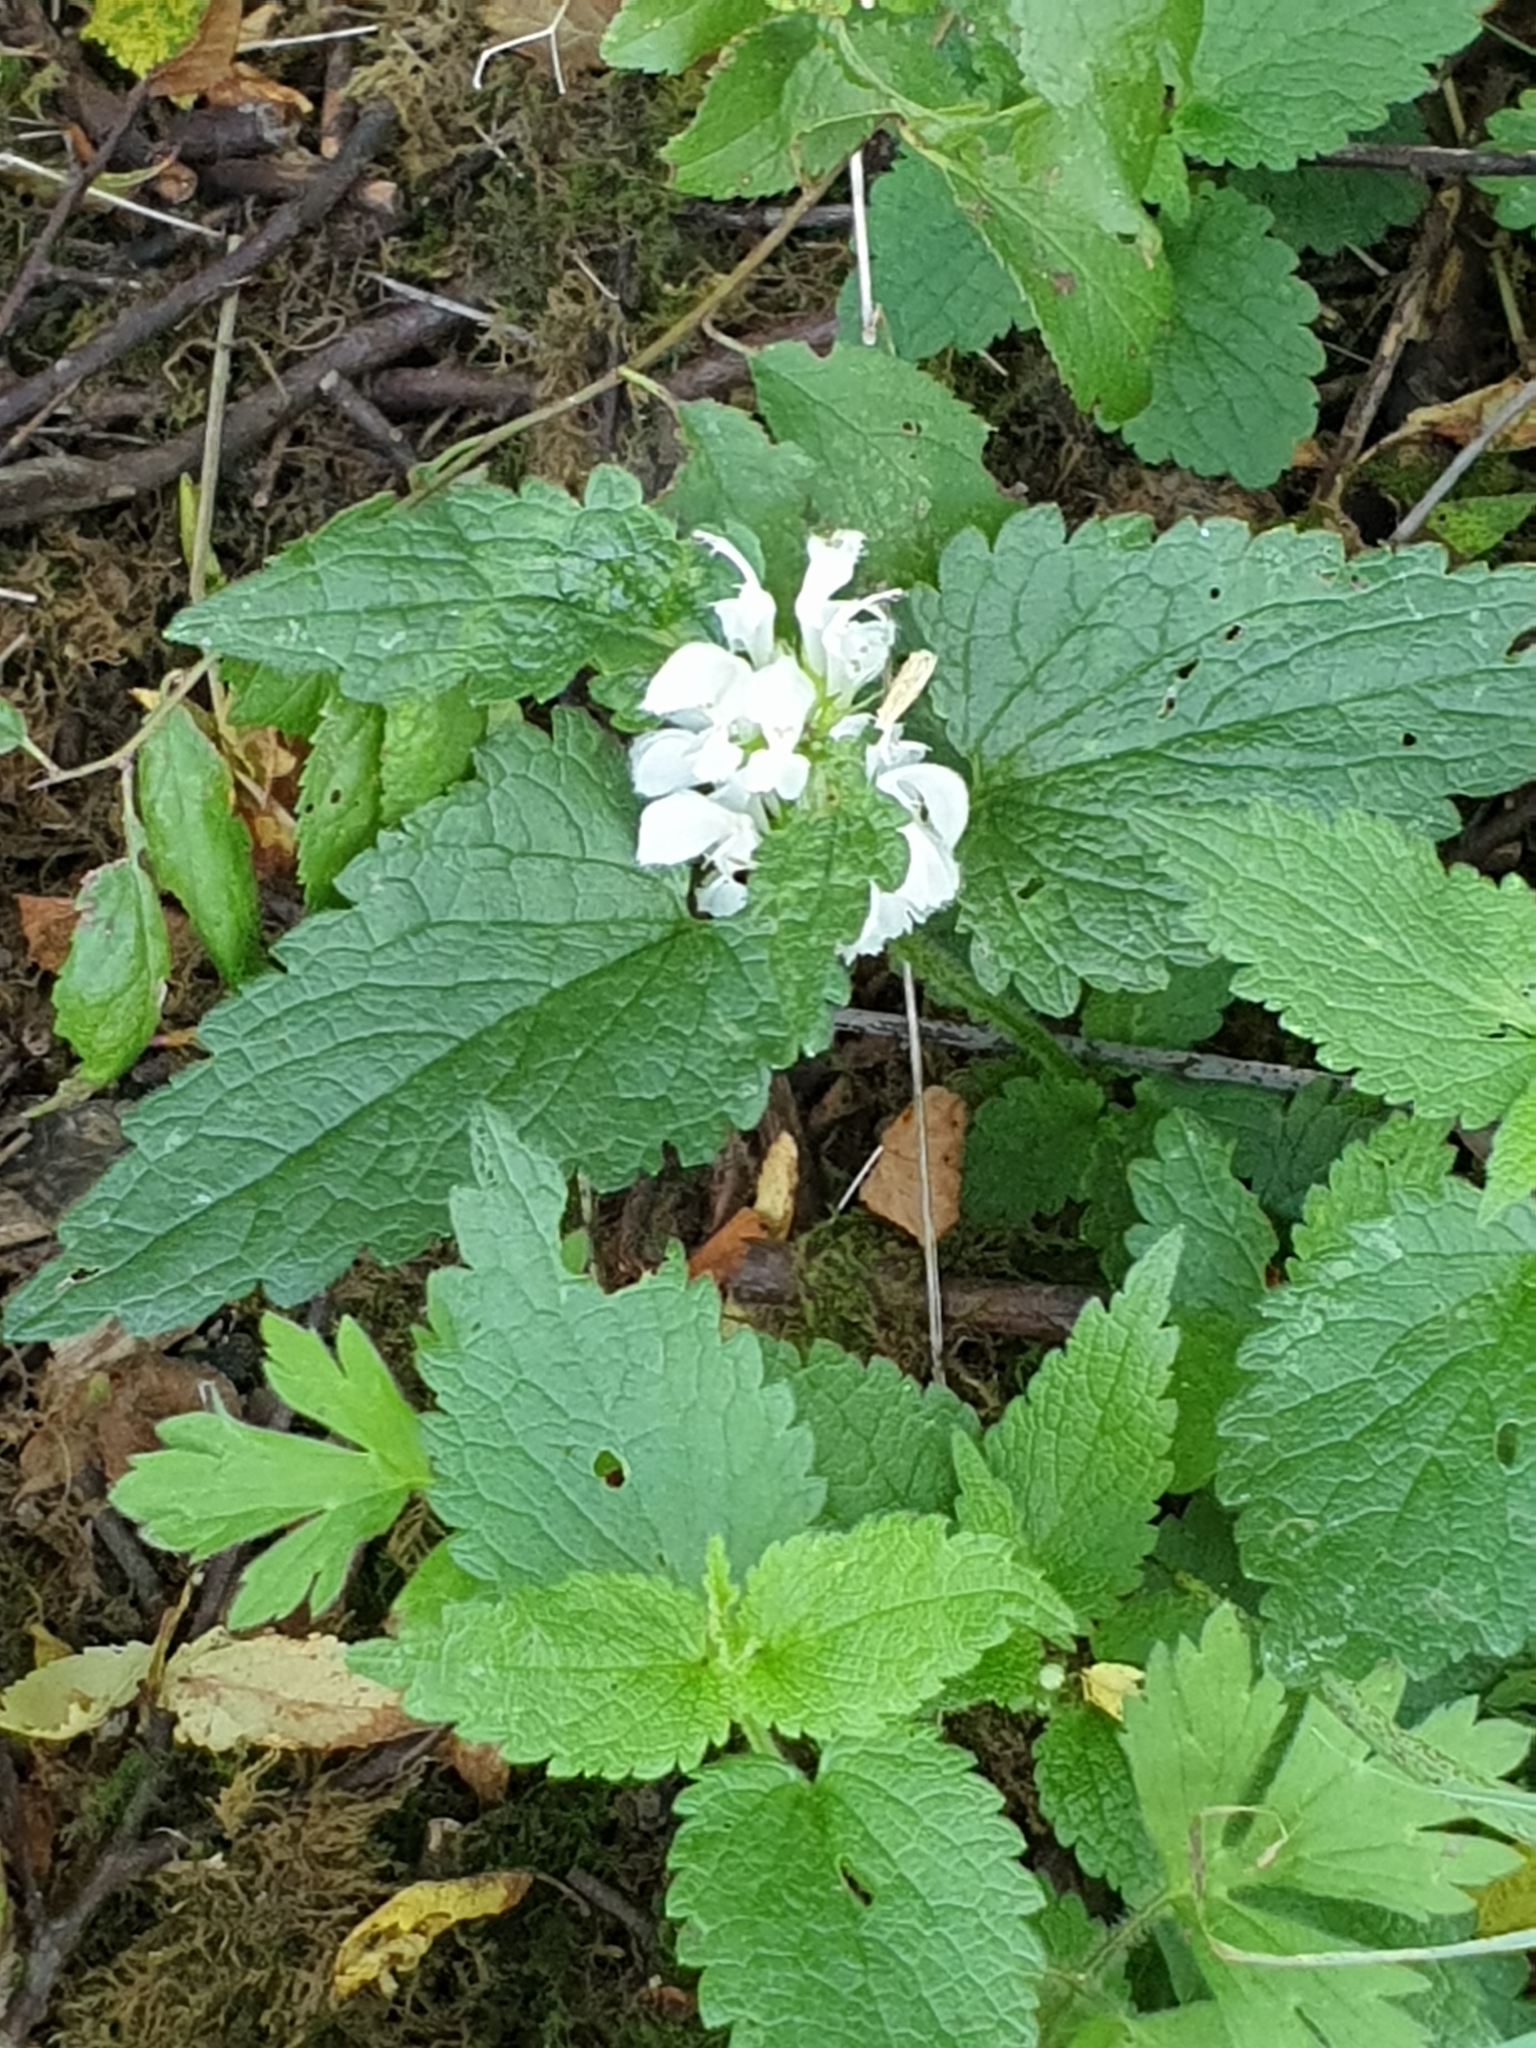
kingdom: Plantae
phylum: Tracheophyta
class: Magnoliopsida
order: Lamiales
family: Lamiaceae
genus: Lamium
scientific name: Lamium album
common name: White dead-nettle
